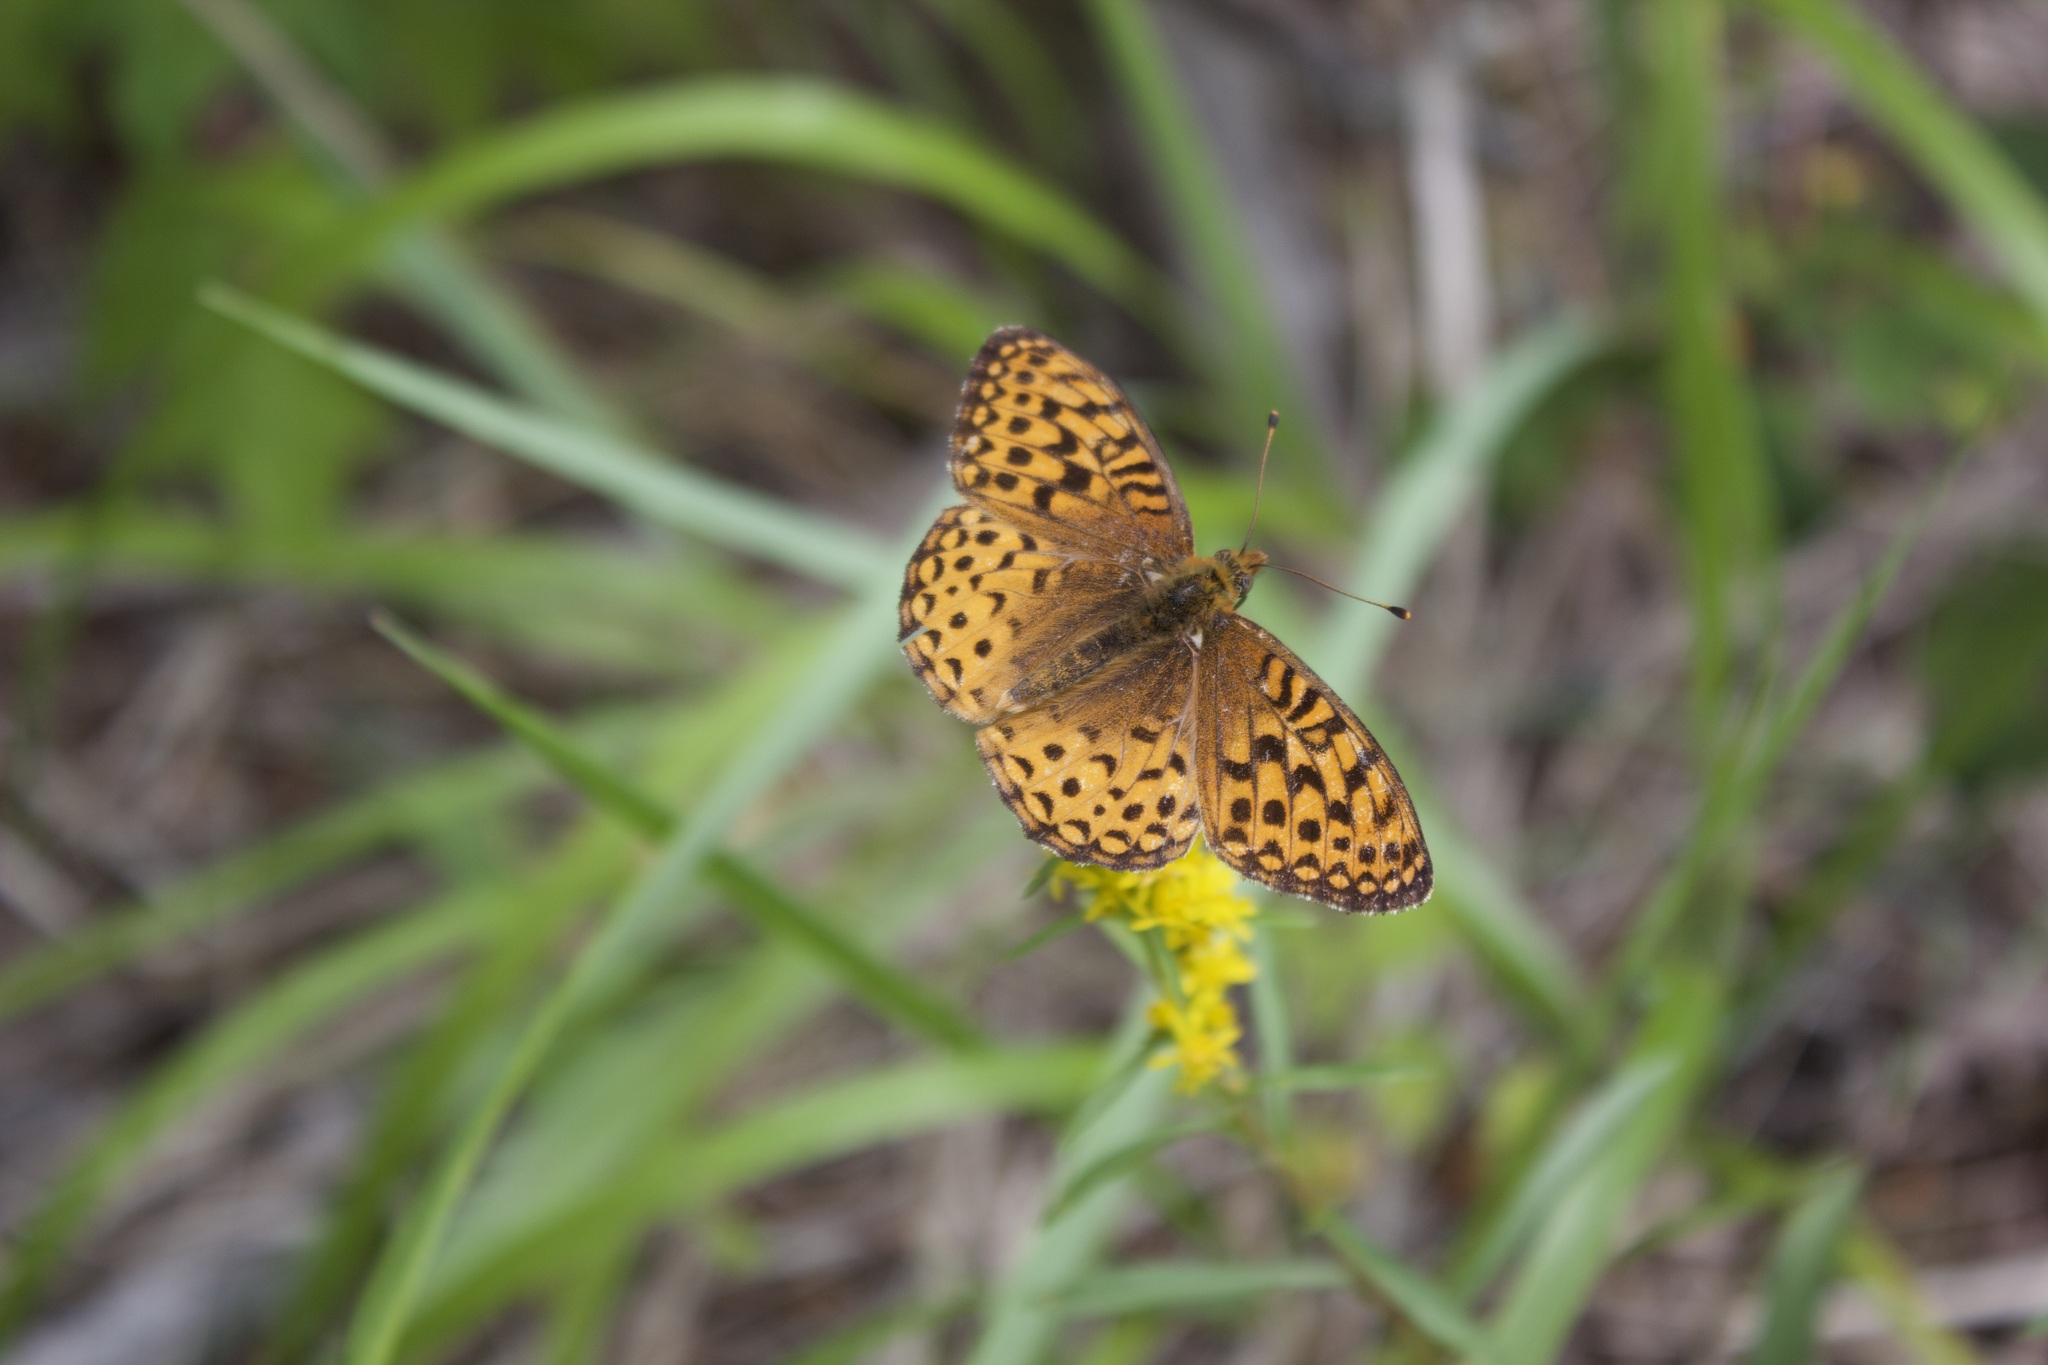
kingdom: Animalia
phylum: Arthropoda
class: Insecta
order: Lepidoptera
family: Nymphalidae
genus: Speyeria
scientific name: Speyeria atlantis
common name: Atlantis fritillary
